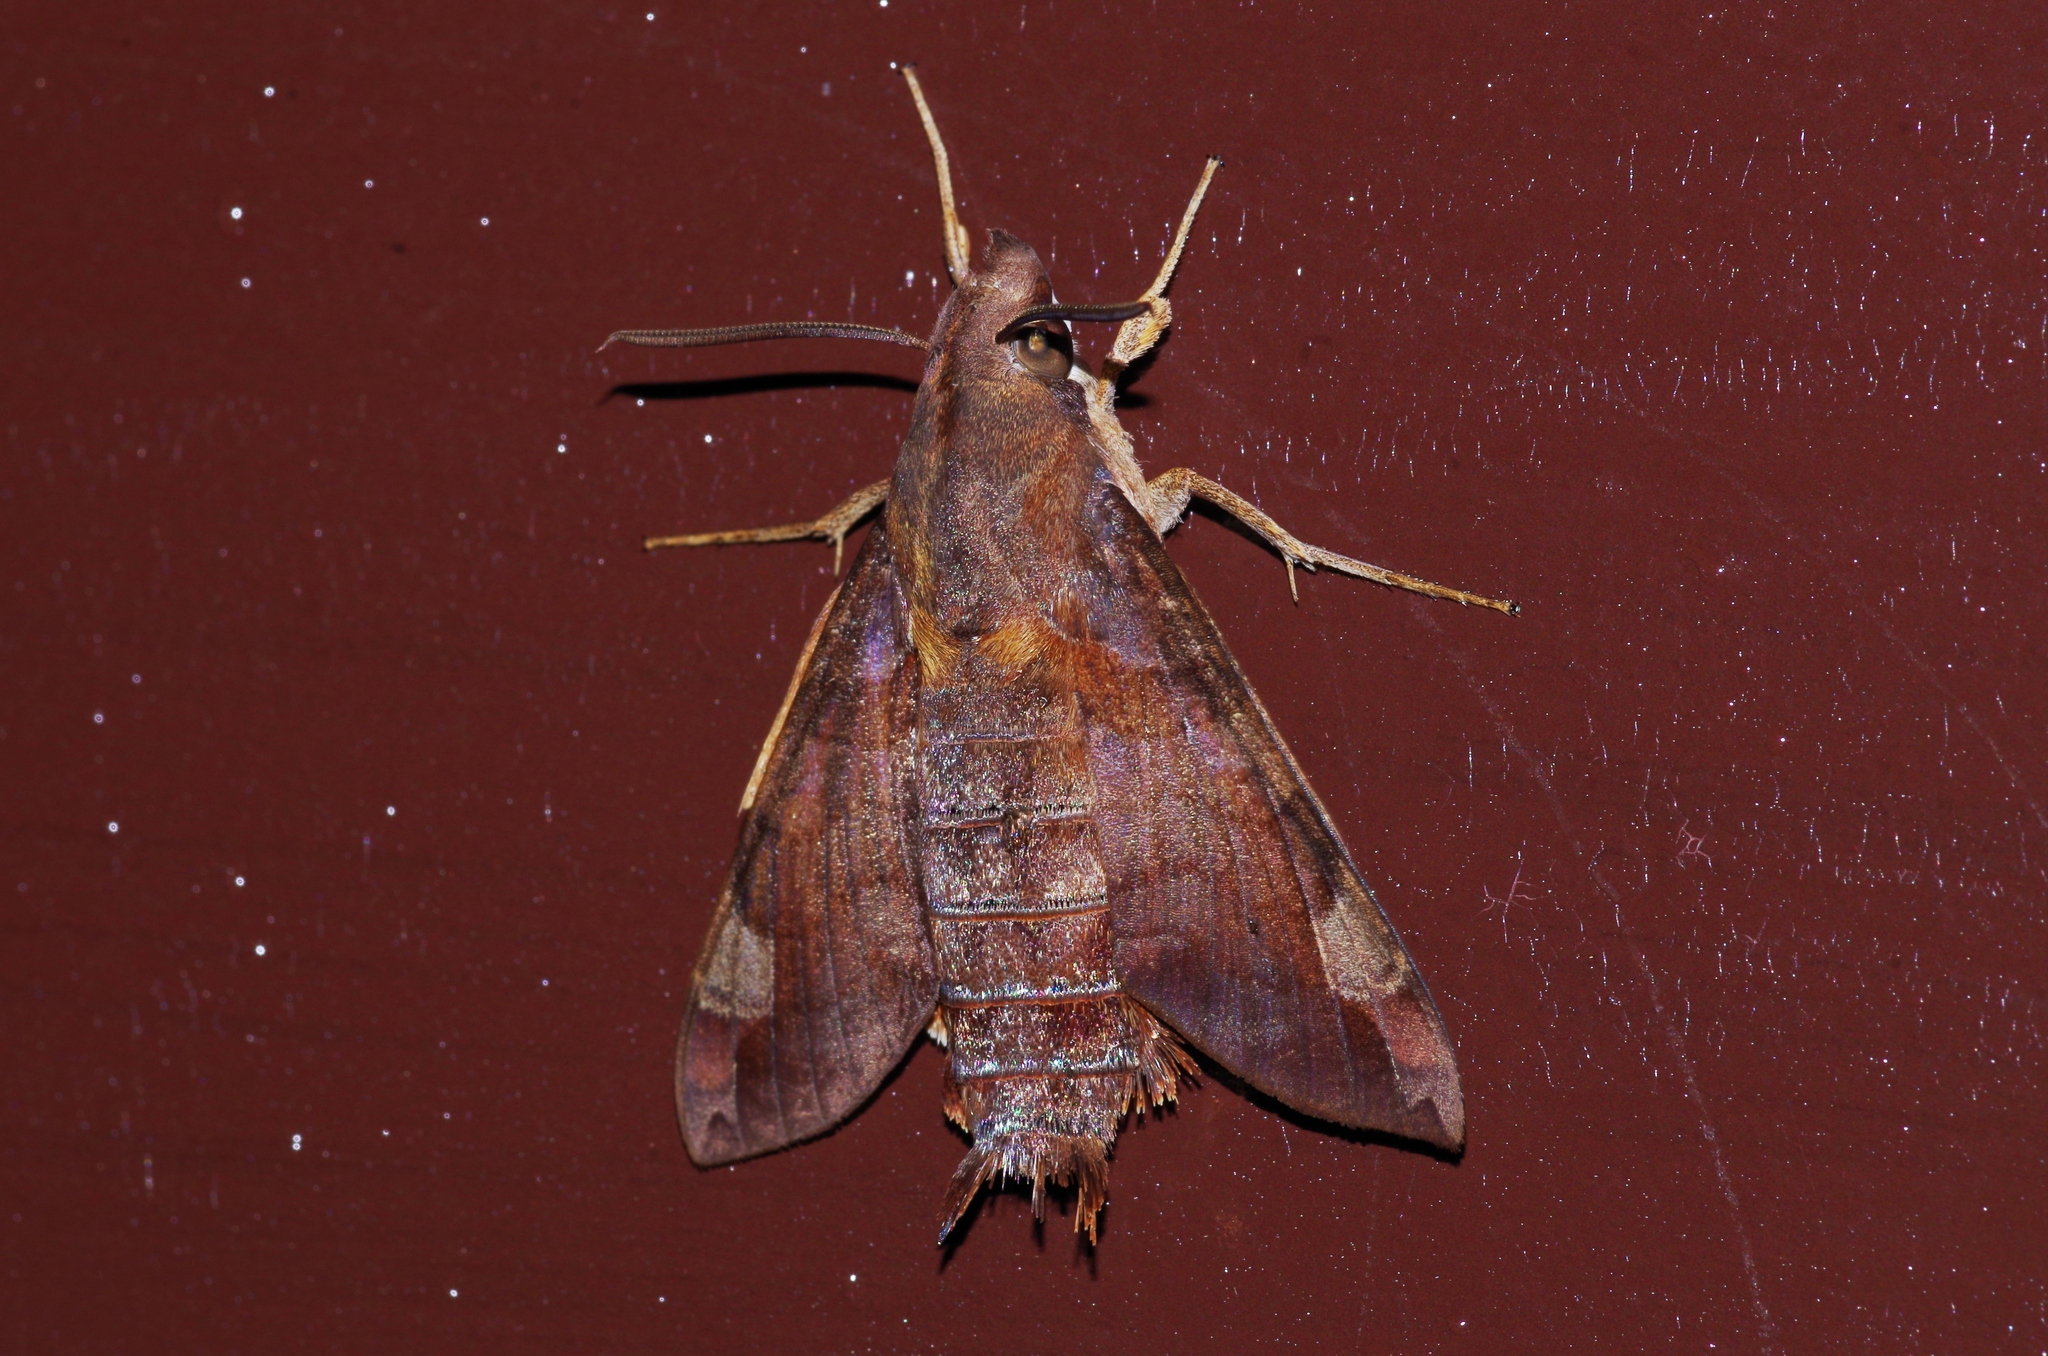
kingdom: Animalia
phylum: Arthropoda
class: Insecta
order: Lepidoptera
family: Sphingidae
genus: Macroglossum
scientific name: Macroglossum saga
